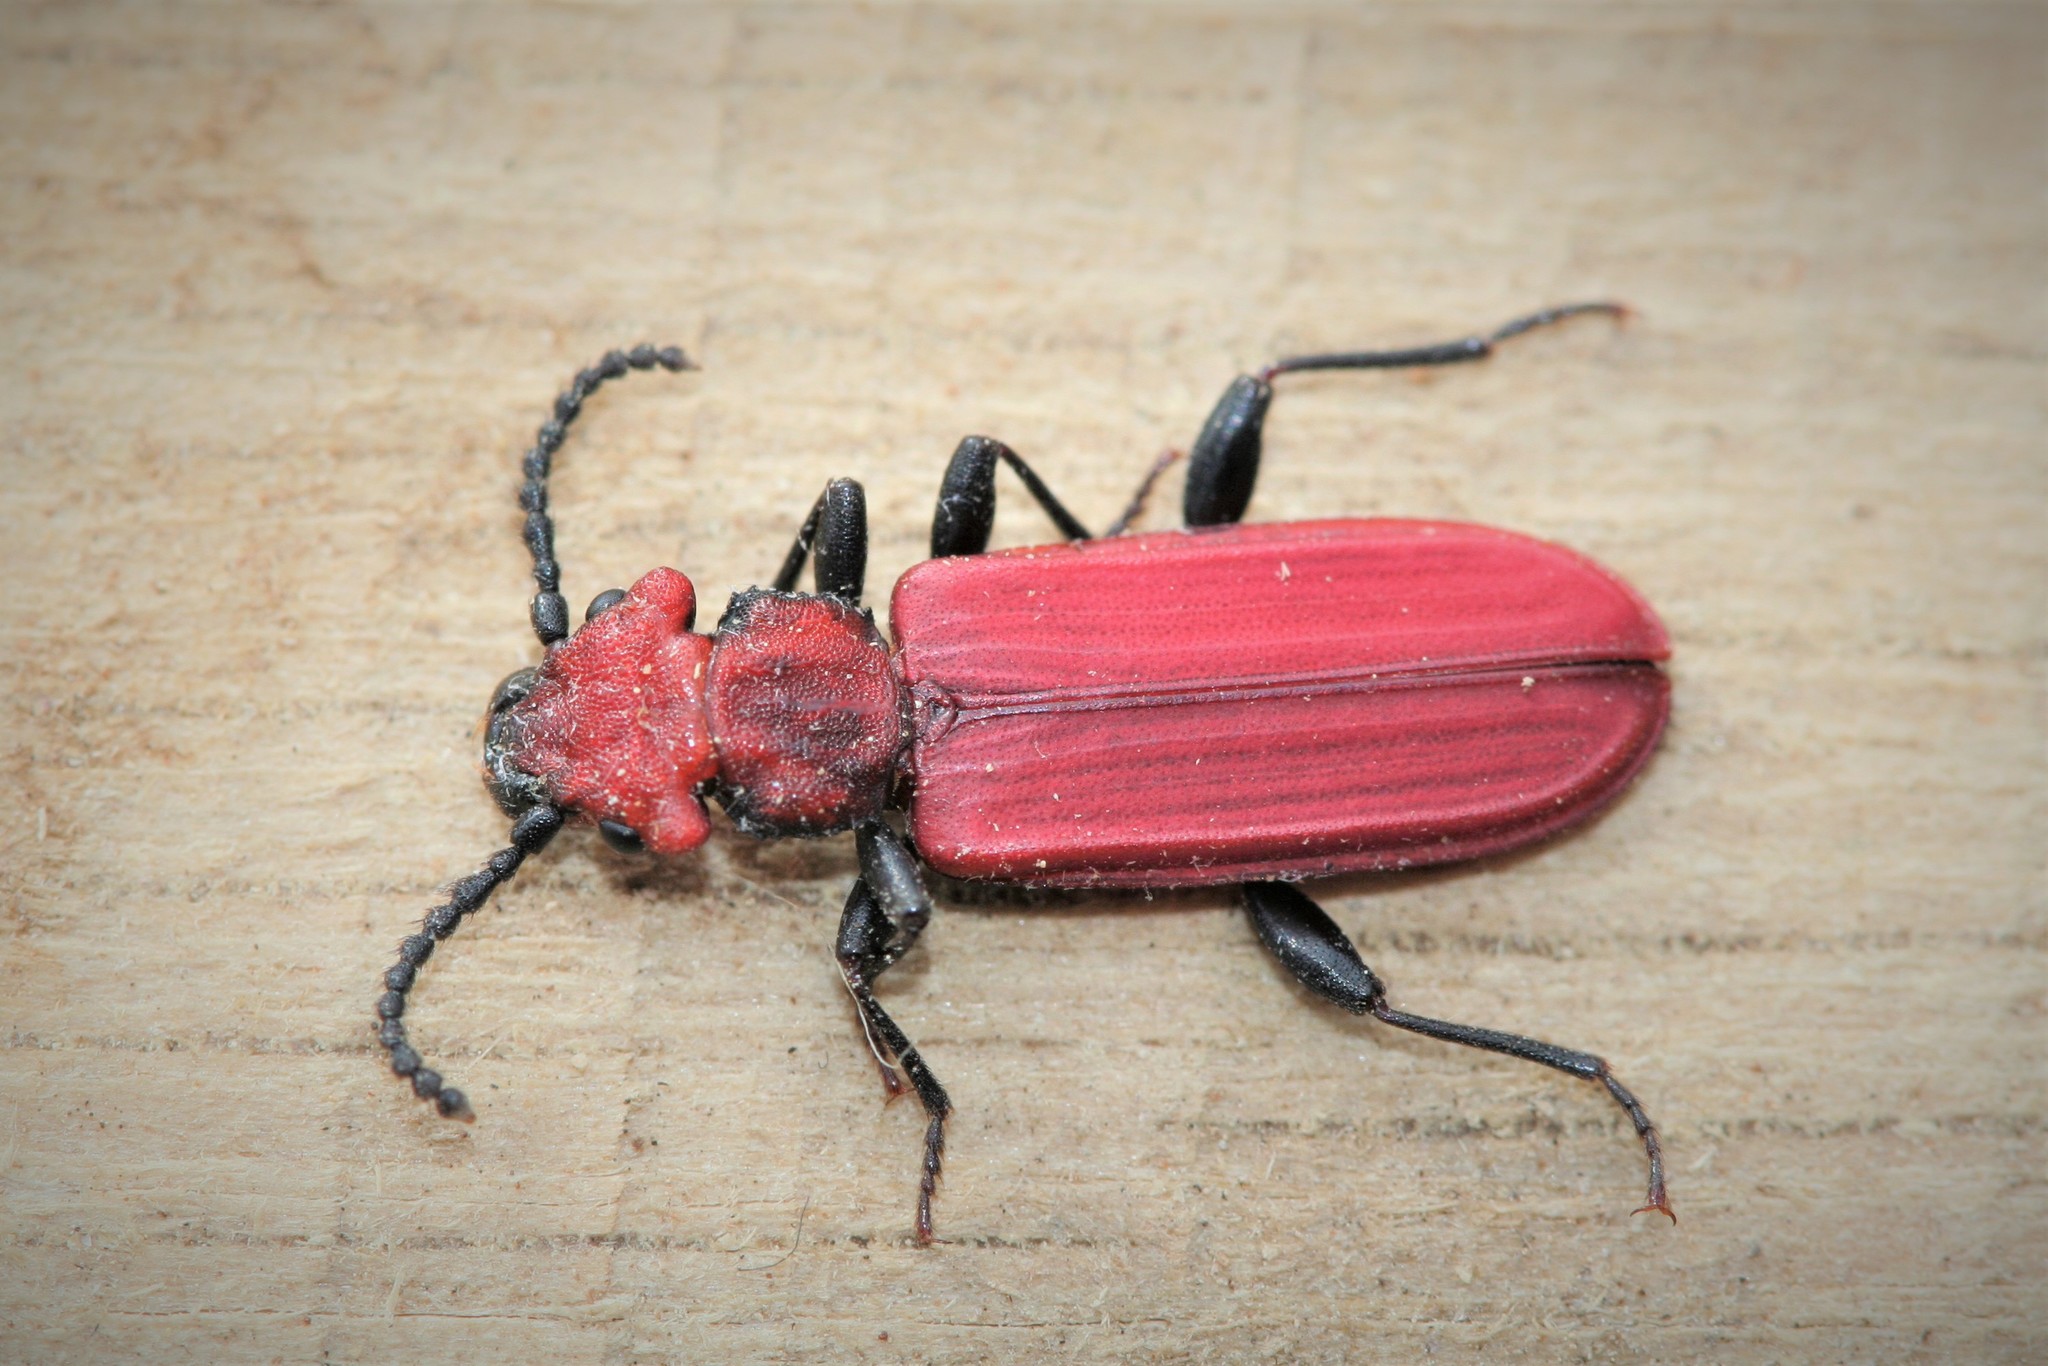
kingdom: Animalia
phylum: Arthropoda
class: Insecta
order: Coleoptera
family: Cucujidae
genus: Cucujus
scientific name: Cucujus cinnaberinus
